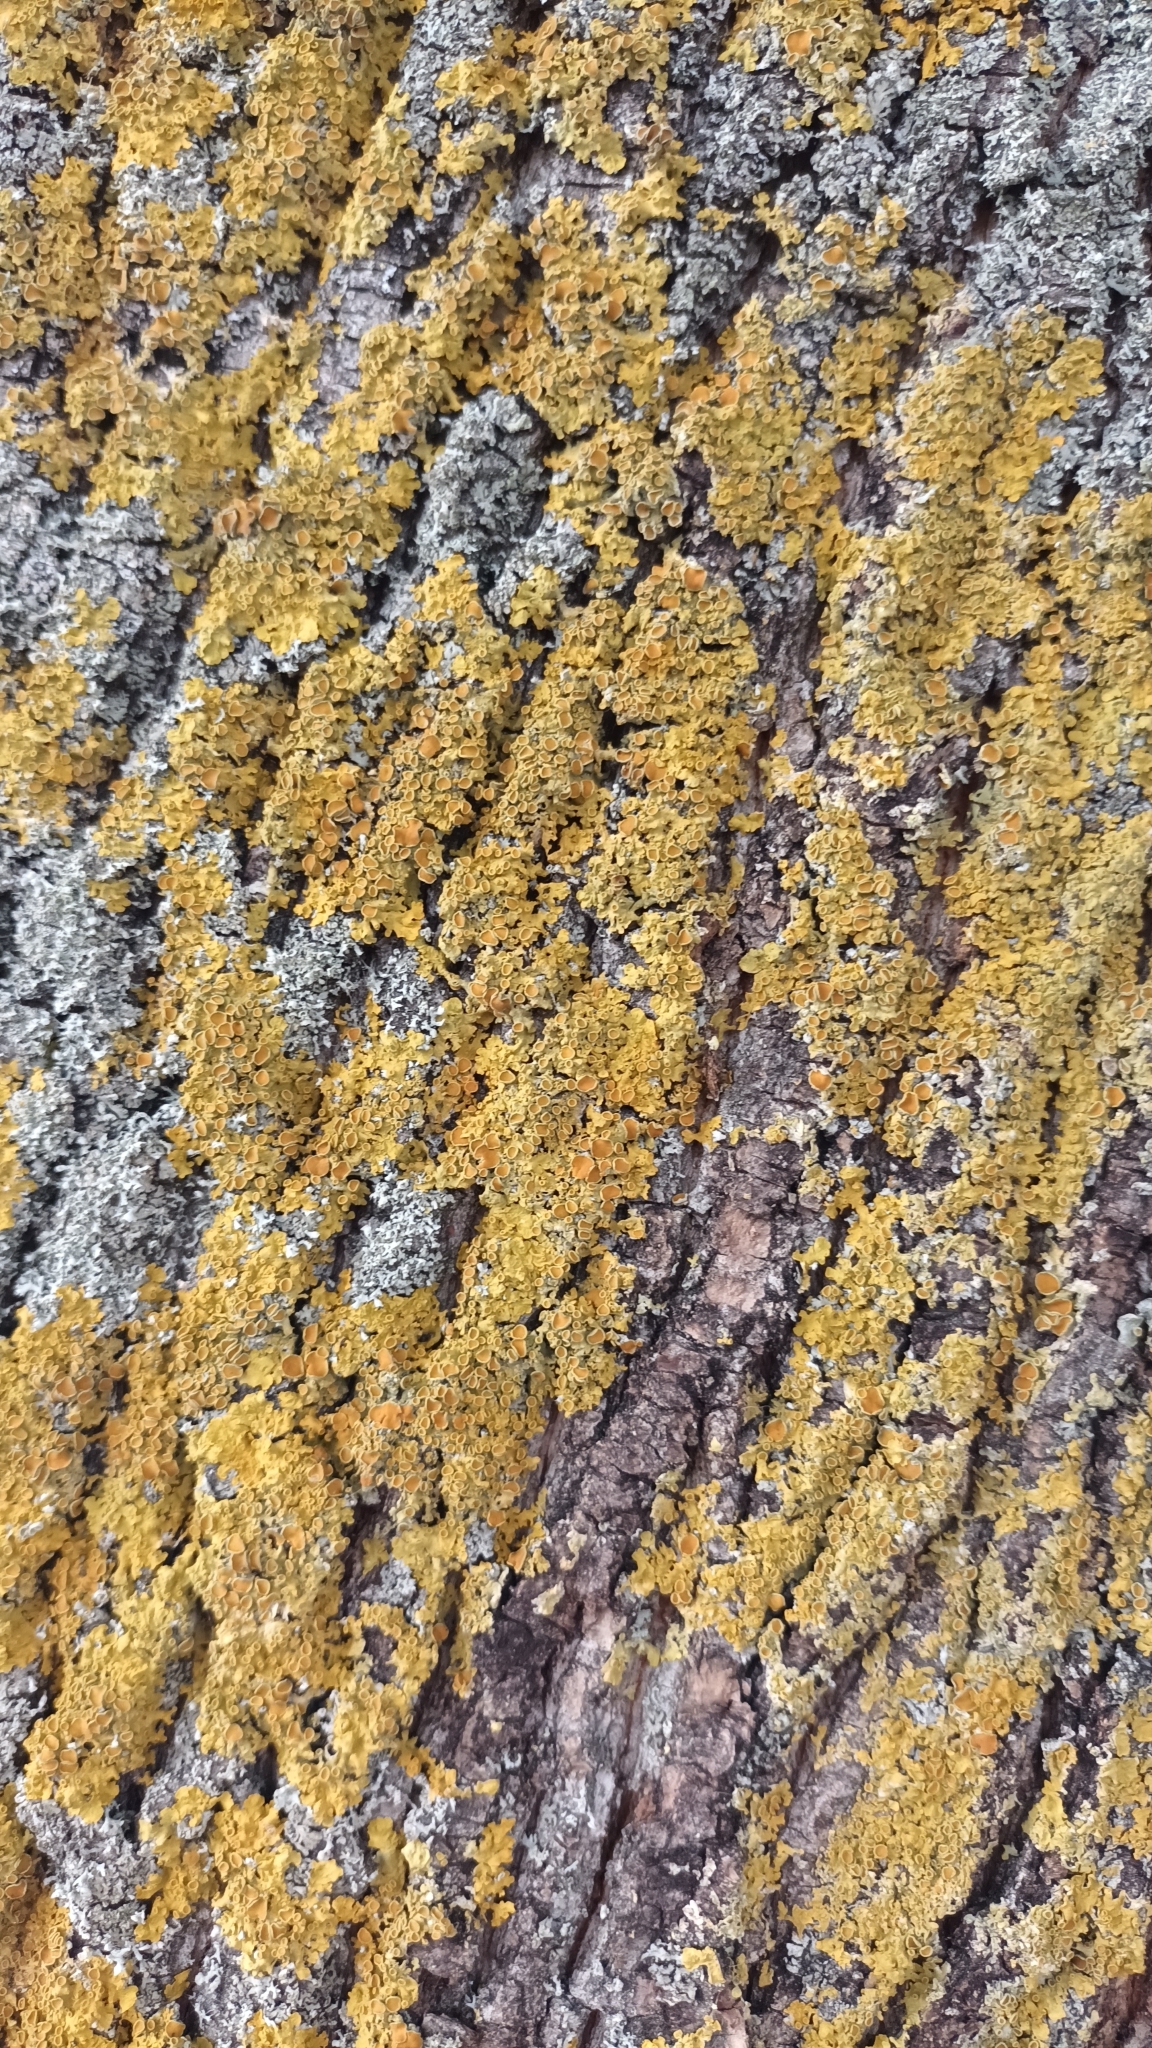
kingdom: Fungi
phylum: Ascomycota
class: Lecanoromycetes
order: Teloschistales
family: Teloschistaceae
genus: Xanthoria
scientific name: Xanthoria parietina
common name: Common orange lichen
